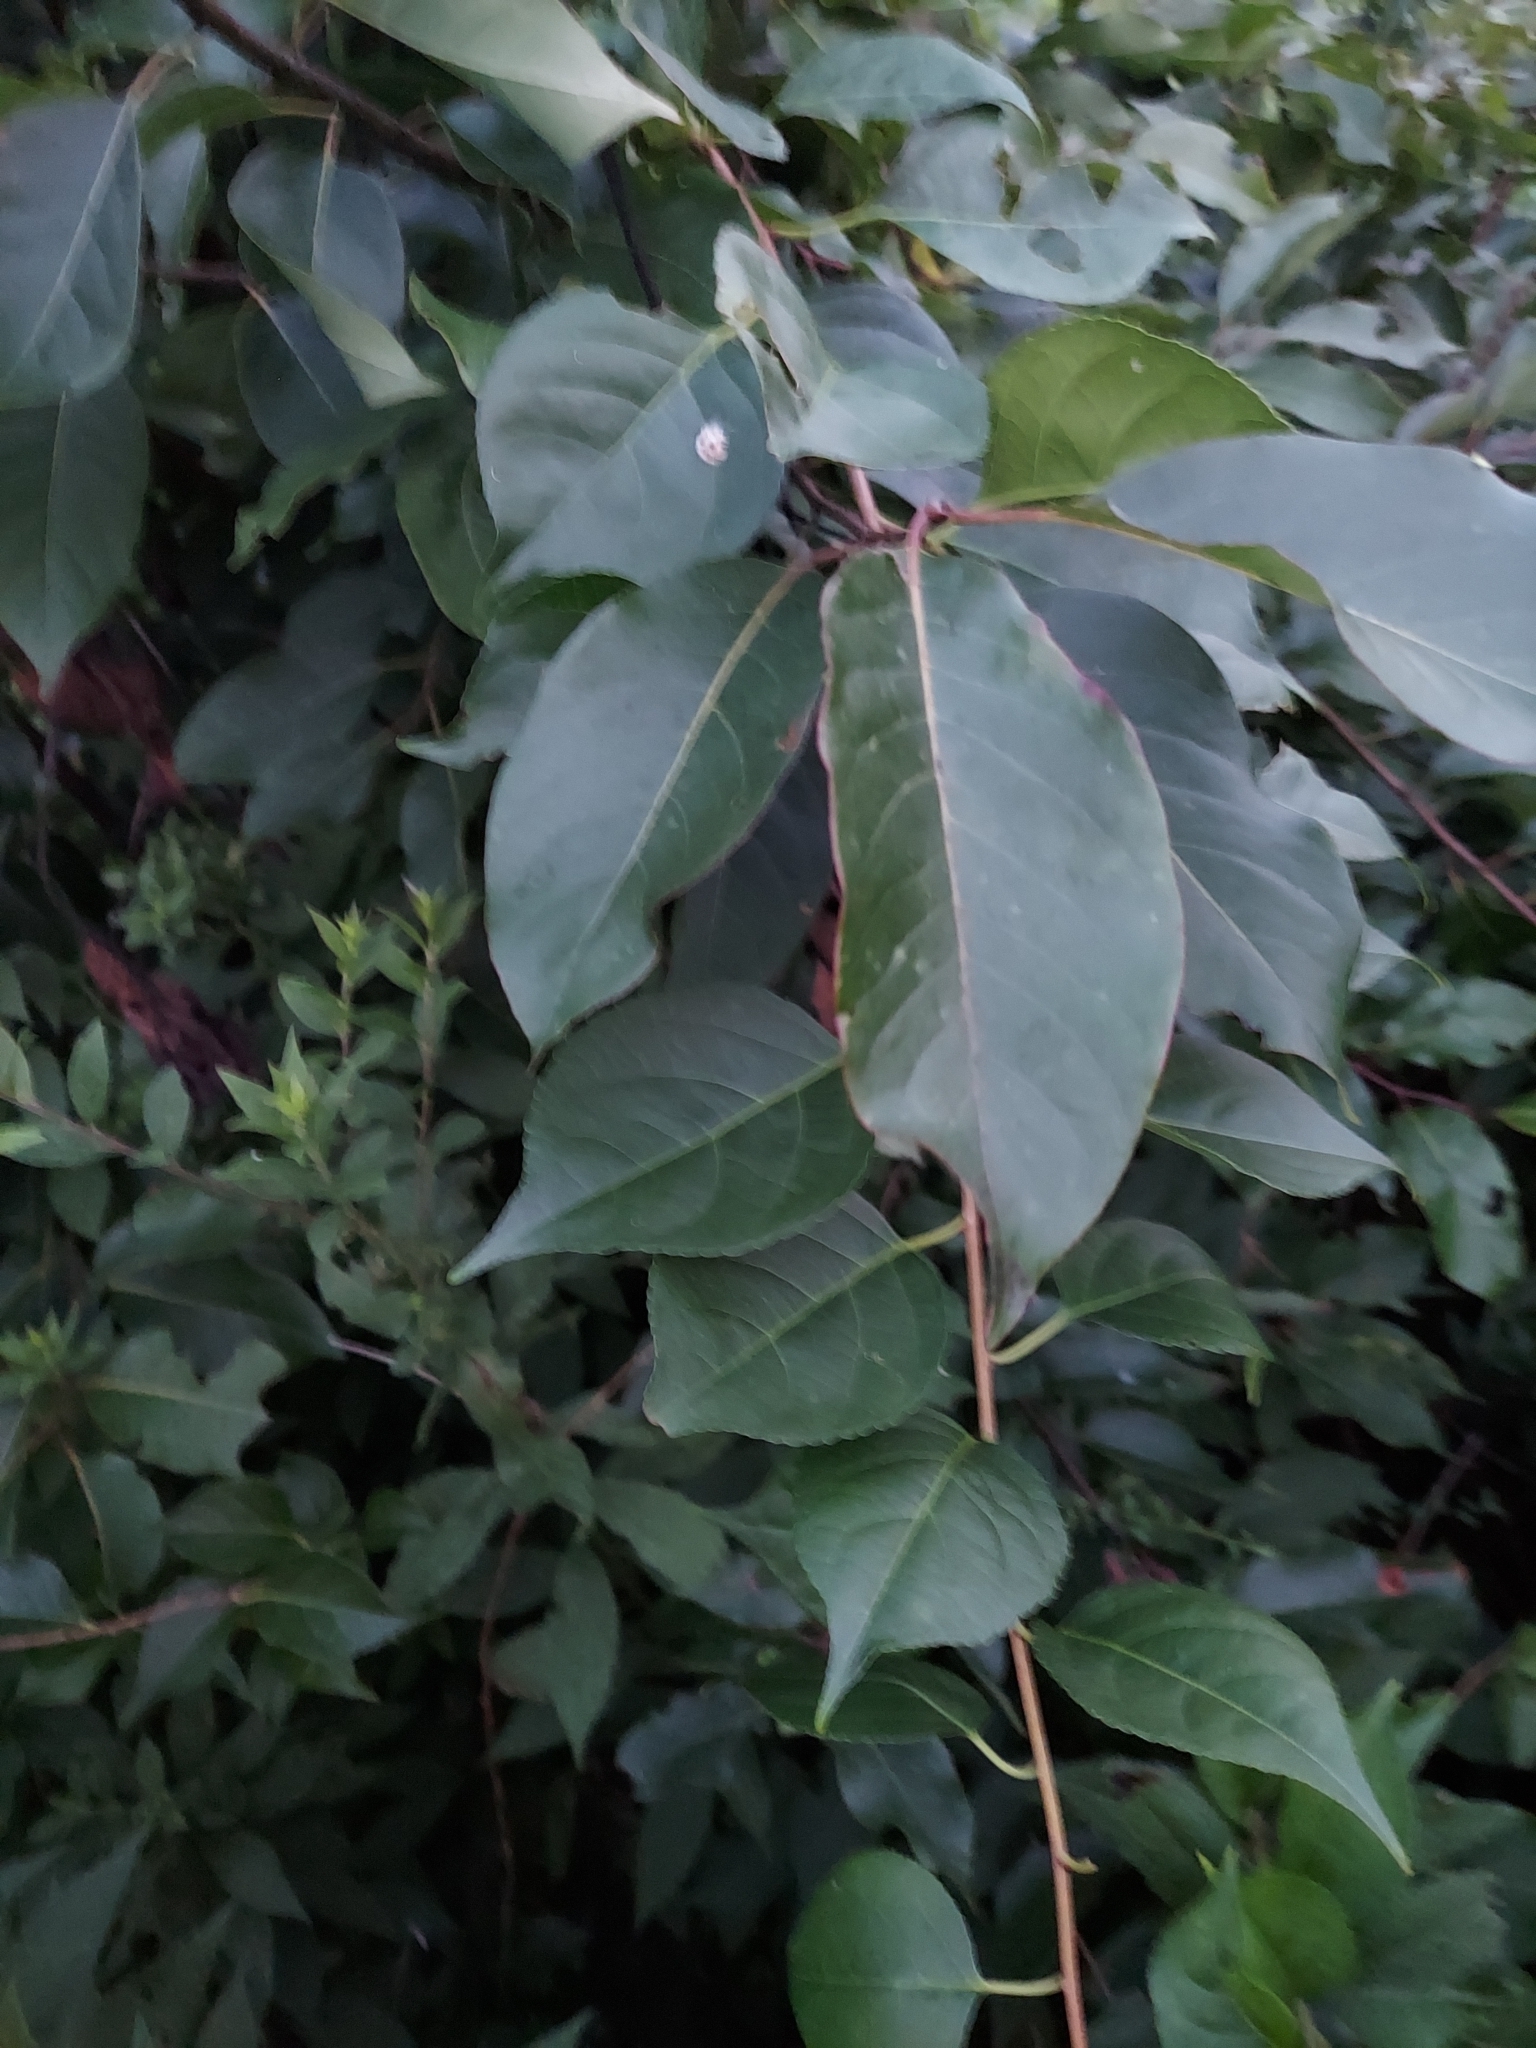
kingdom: Plantae
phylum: Tracheophyta
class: Magnoliopsida
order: Ericales
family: Ebenaceae
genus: Diospyros
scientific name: Diospyros virginiana
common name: Persimmon
